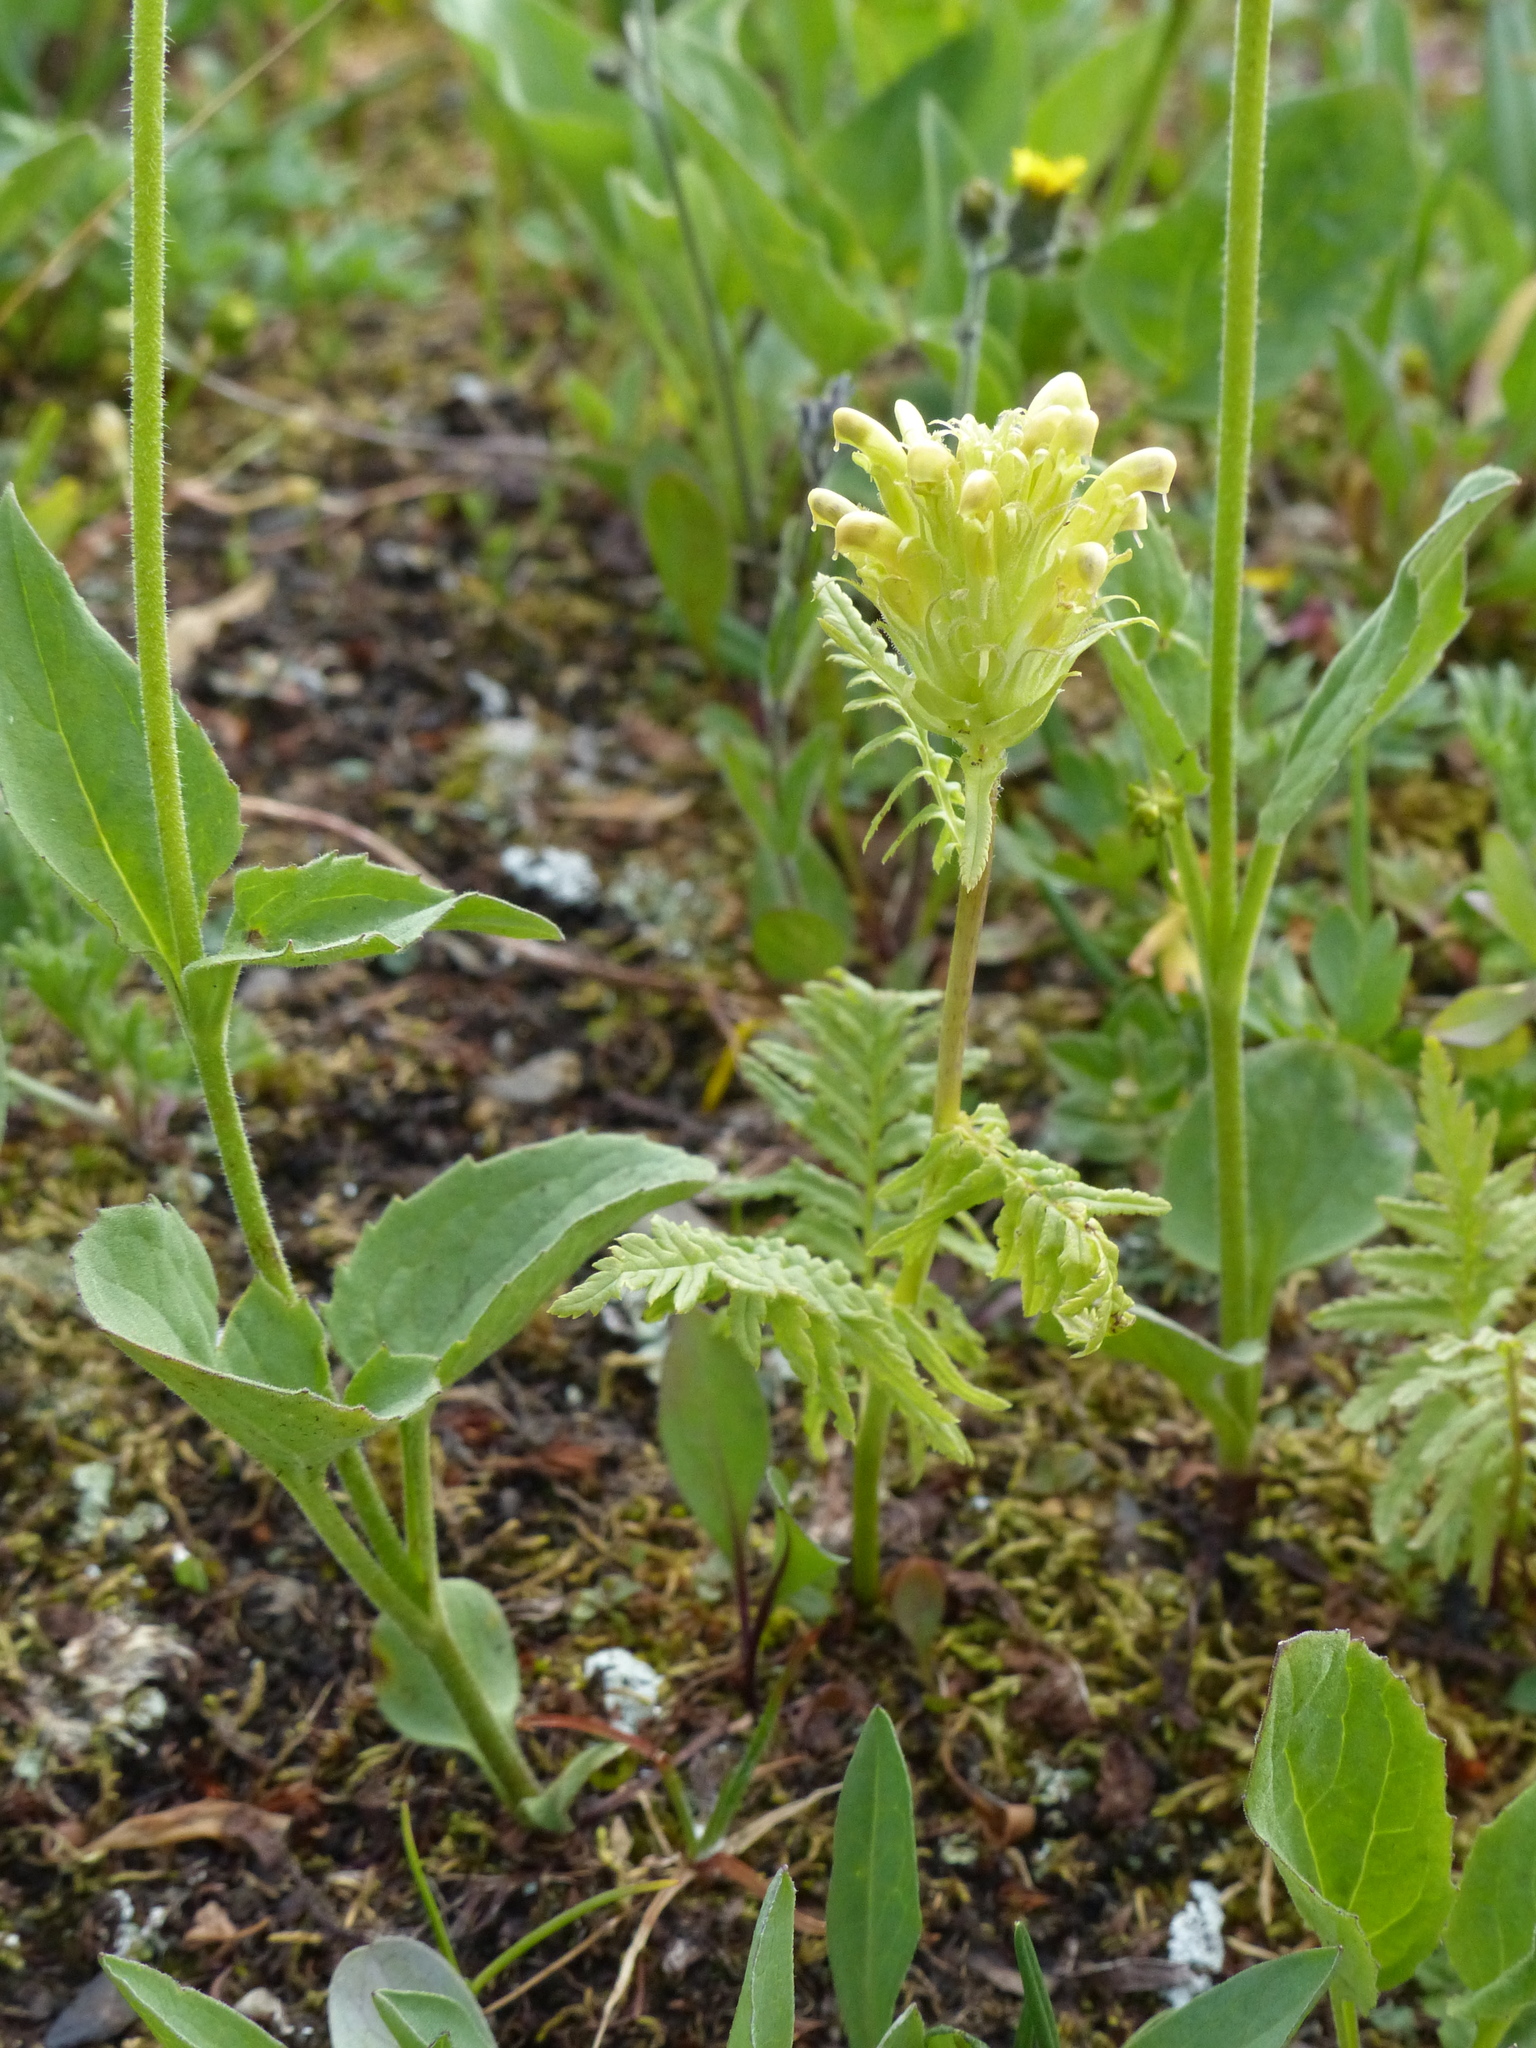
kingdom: Plantae
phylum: Tracheophyta
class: Magnoliopsida
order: Lamiales
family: Orobanchaceae
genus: Pedicularis
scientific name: Pedicularis bracteosa
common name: Bracted lousewort
